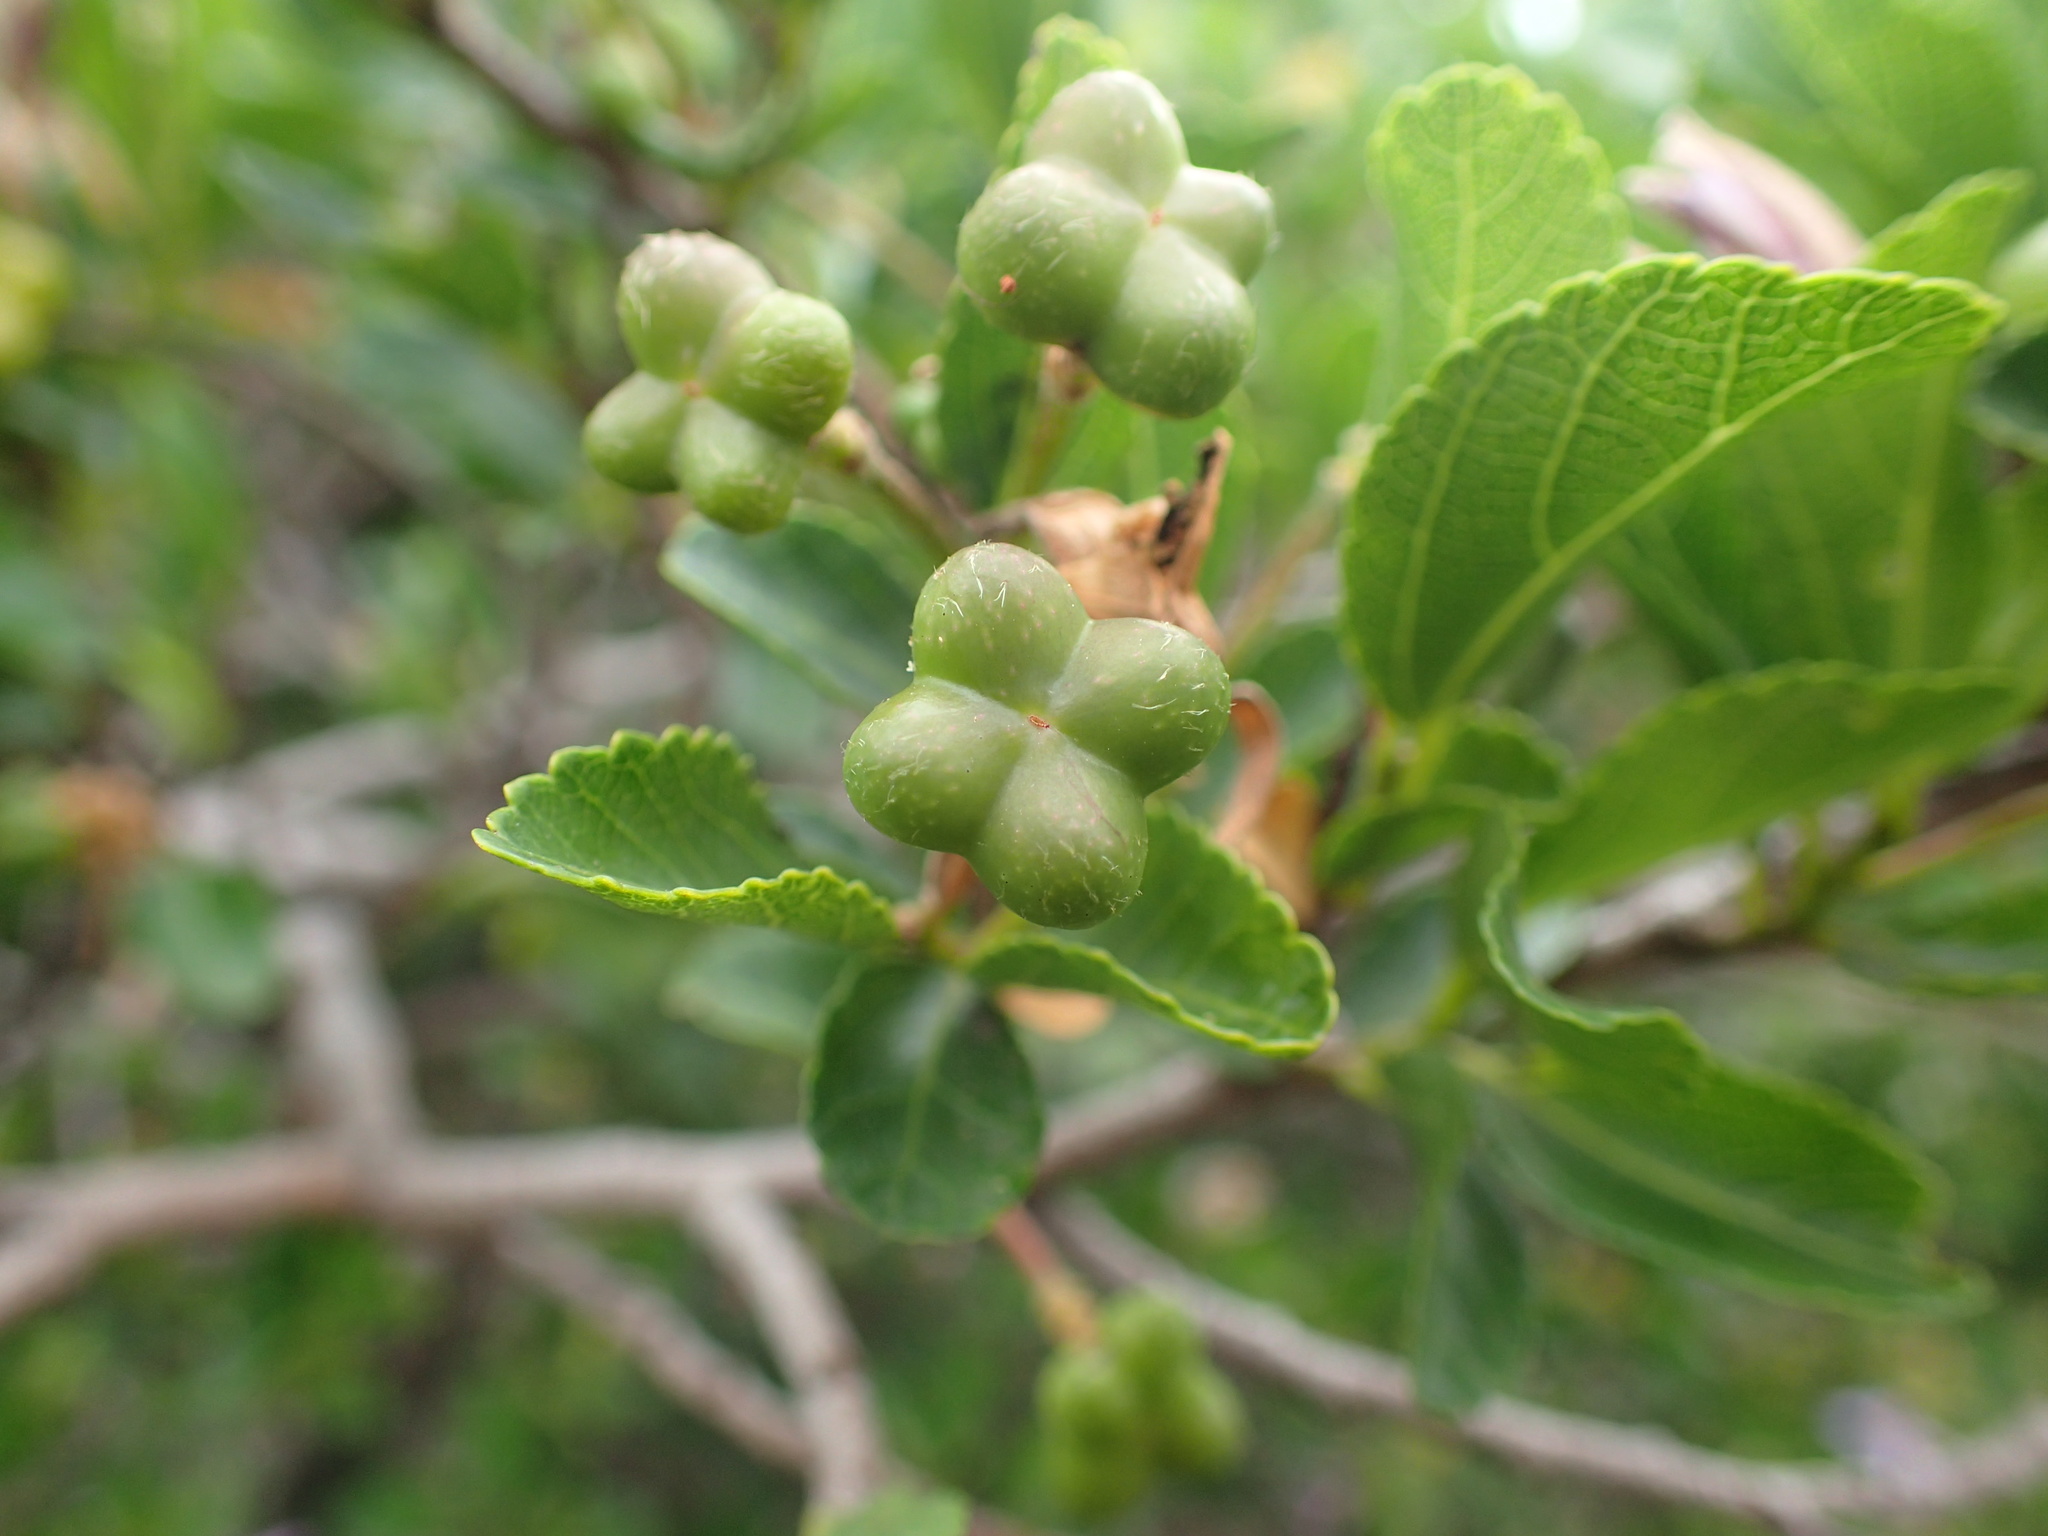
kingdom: Plantae
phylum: Tracheophyta
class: Magnoliopsida
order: Malvales
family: Malvaceae
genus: Grewia
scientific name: Grewia occidentalis
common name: Crossberry
